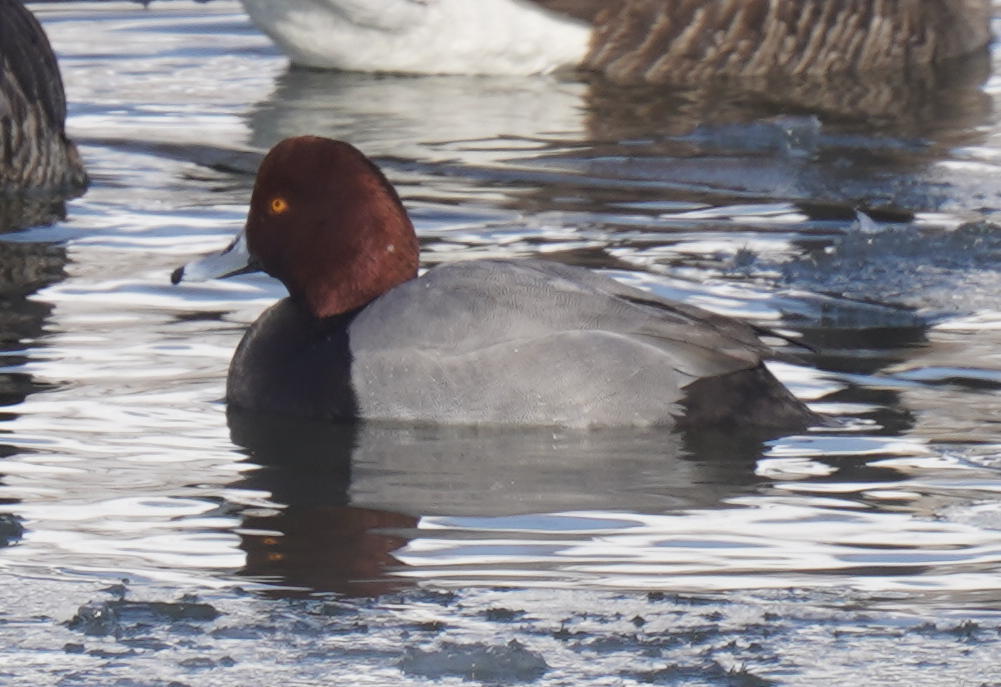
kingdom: Animalia
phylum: Chordata
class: Aves
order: Anseriformes
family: Anatidae
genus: Aythya
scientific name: Aythya americana
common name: Redhead
